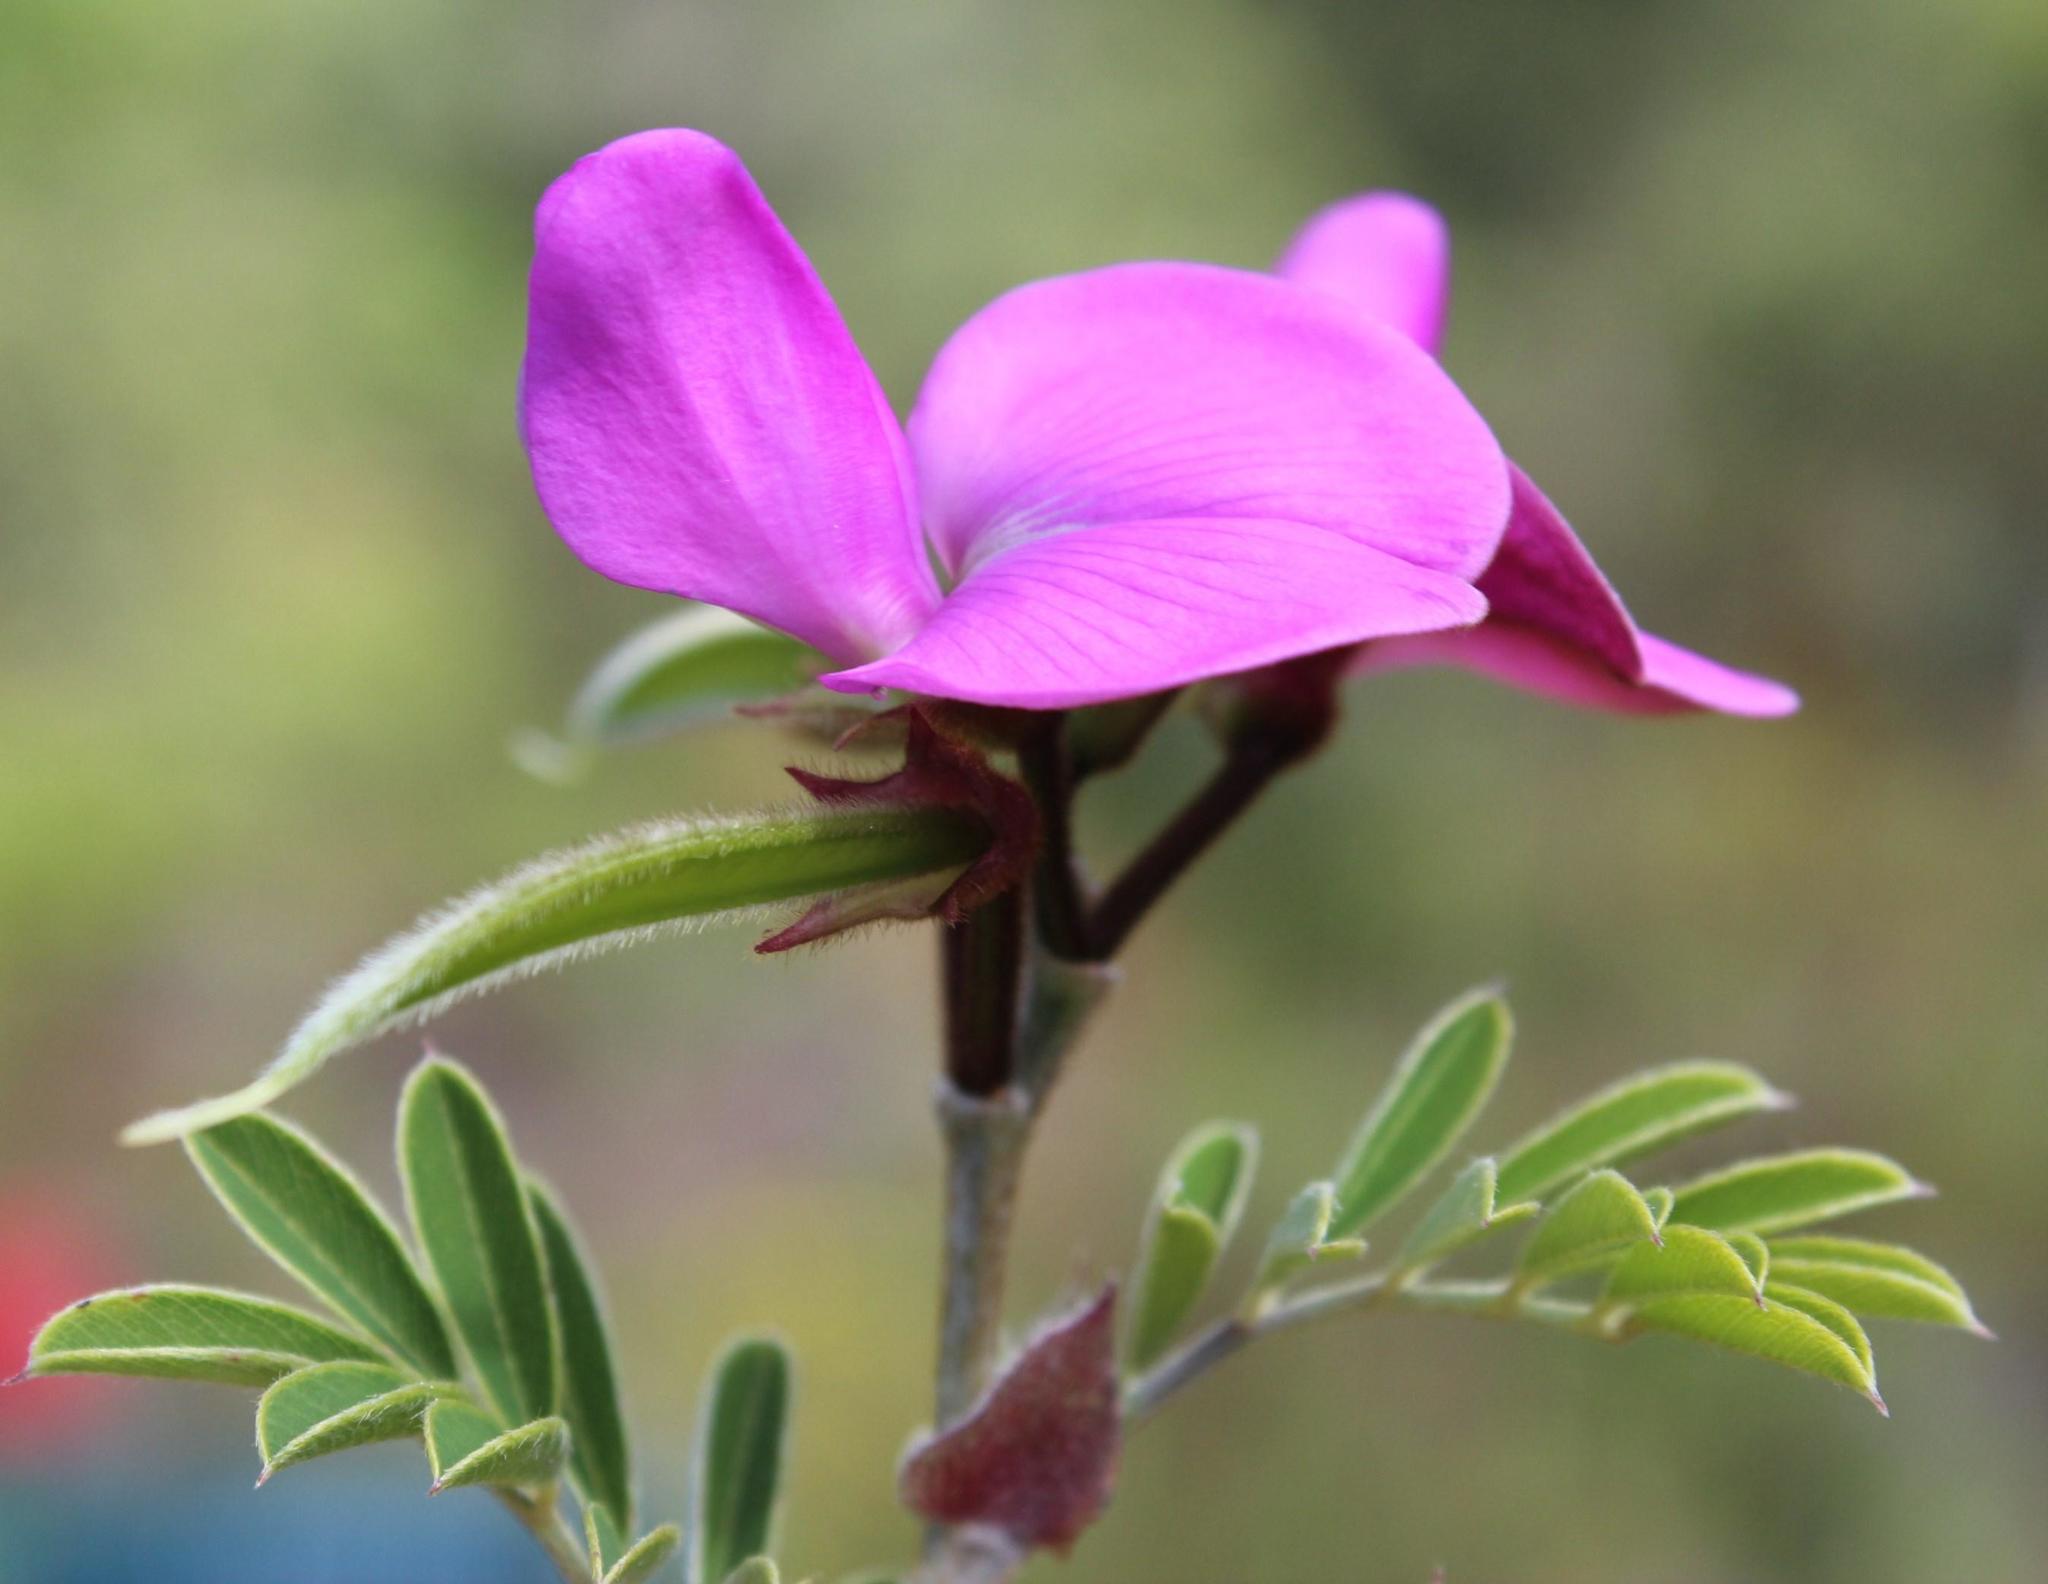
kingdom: Plantae
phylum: Tracheophyta
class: Magnoliopsida
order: Fabales
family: Fabaceae
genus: Tephrosia
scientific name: Tephrosia grandiflora
